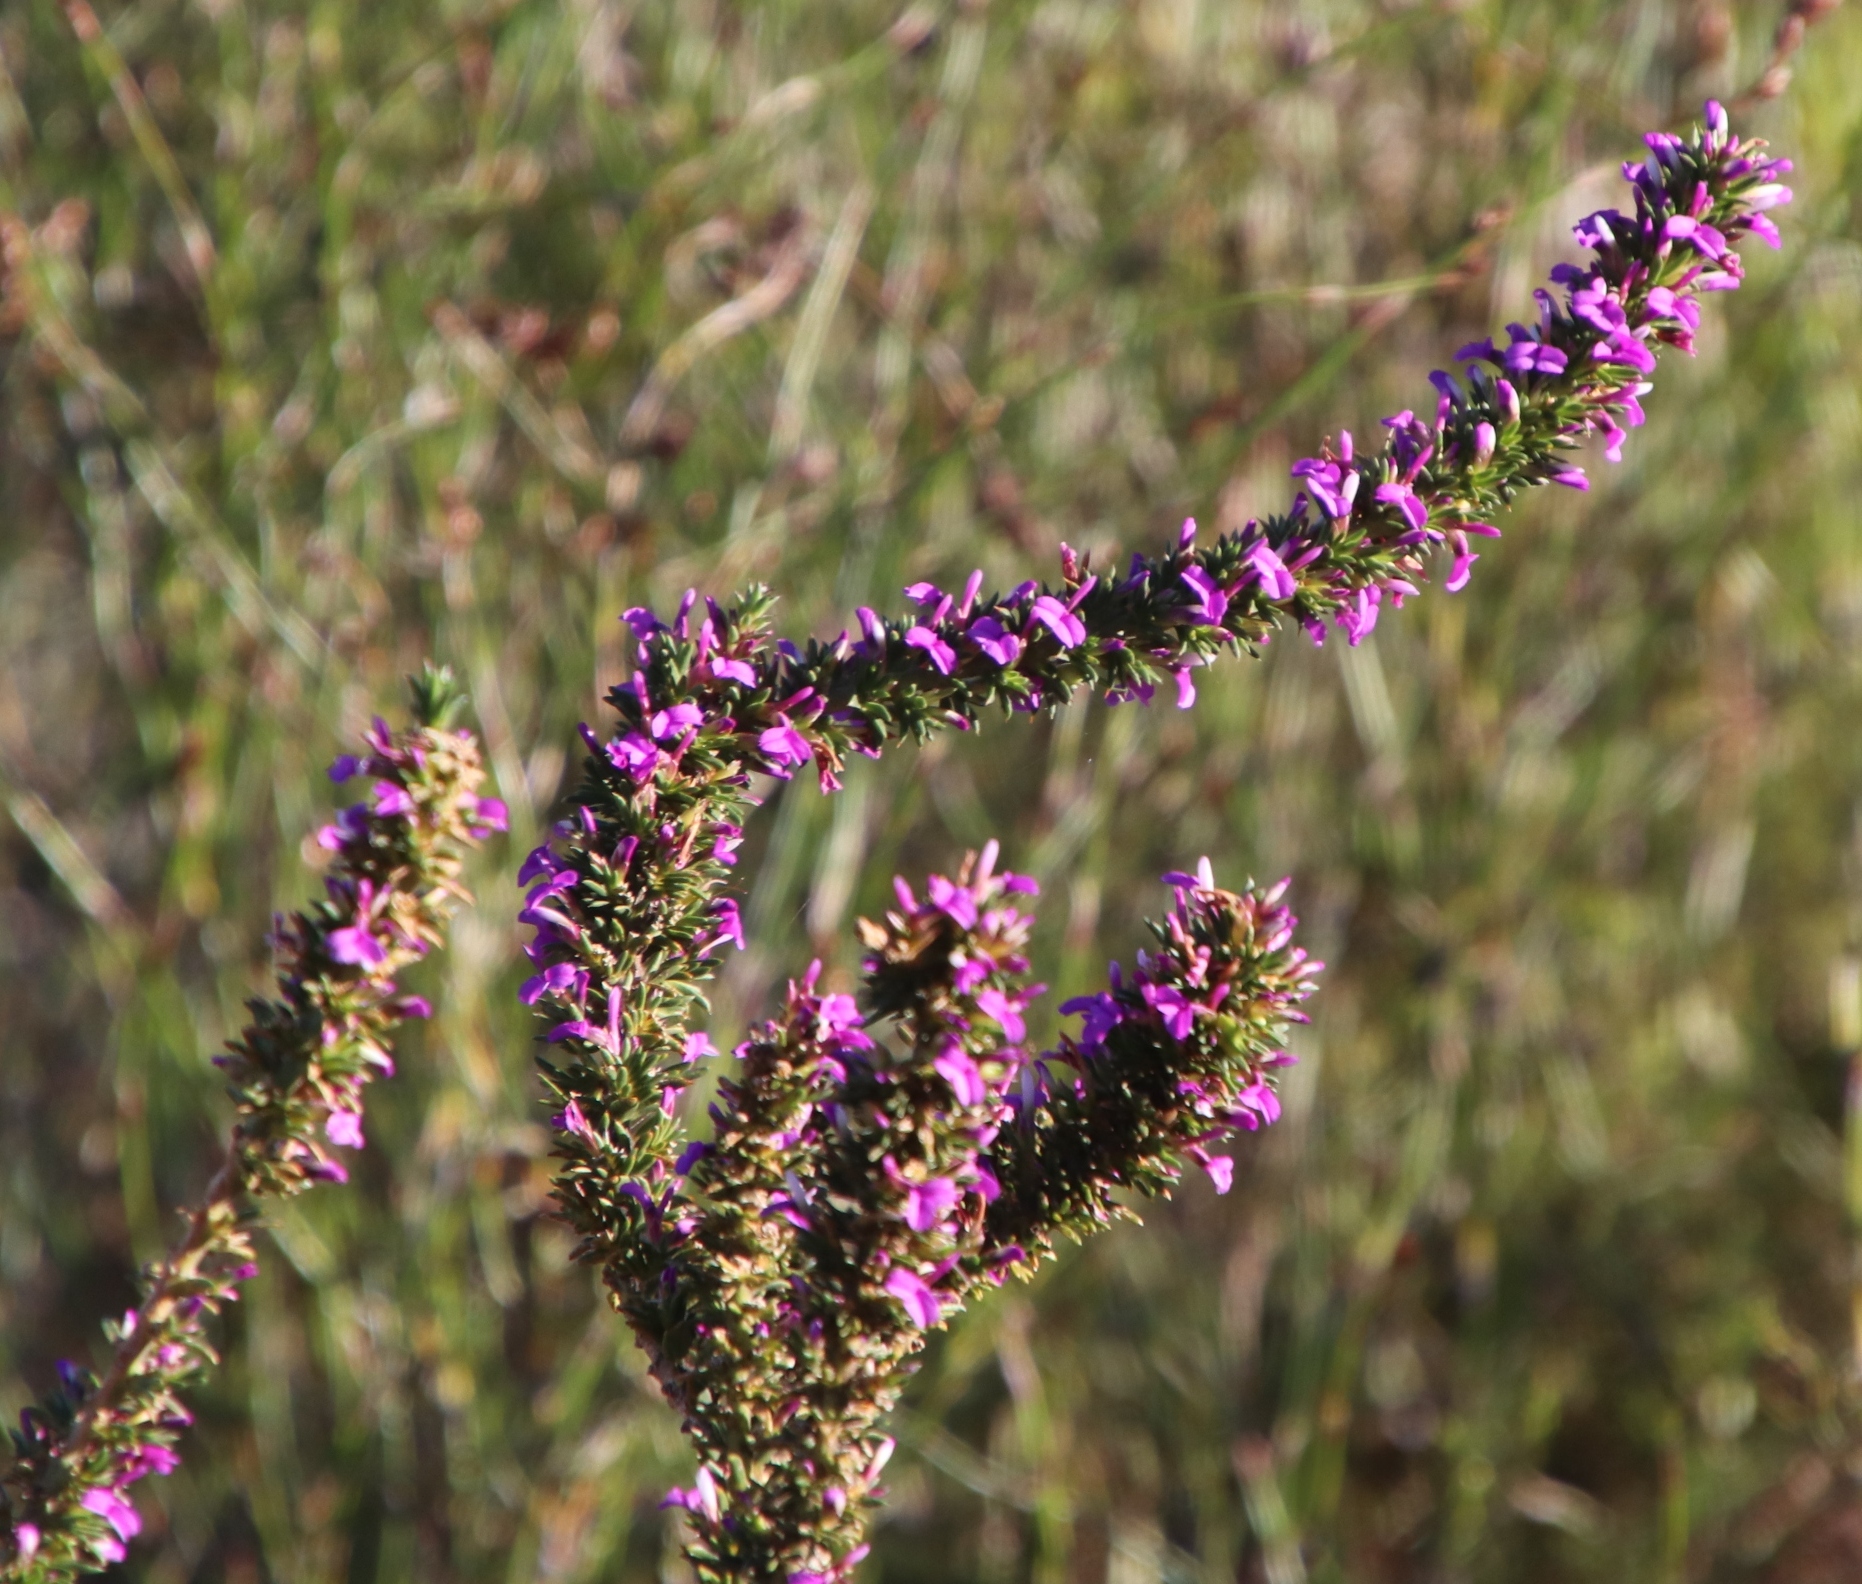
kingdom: Plantae
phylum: Tracheophyta
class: Magnoliopsida
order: Fabales
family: Polygalaceae
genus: Muraltia
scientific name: Muraltia heisteria
